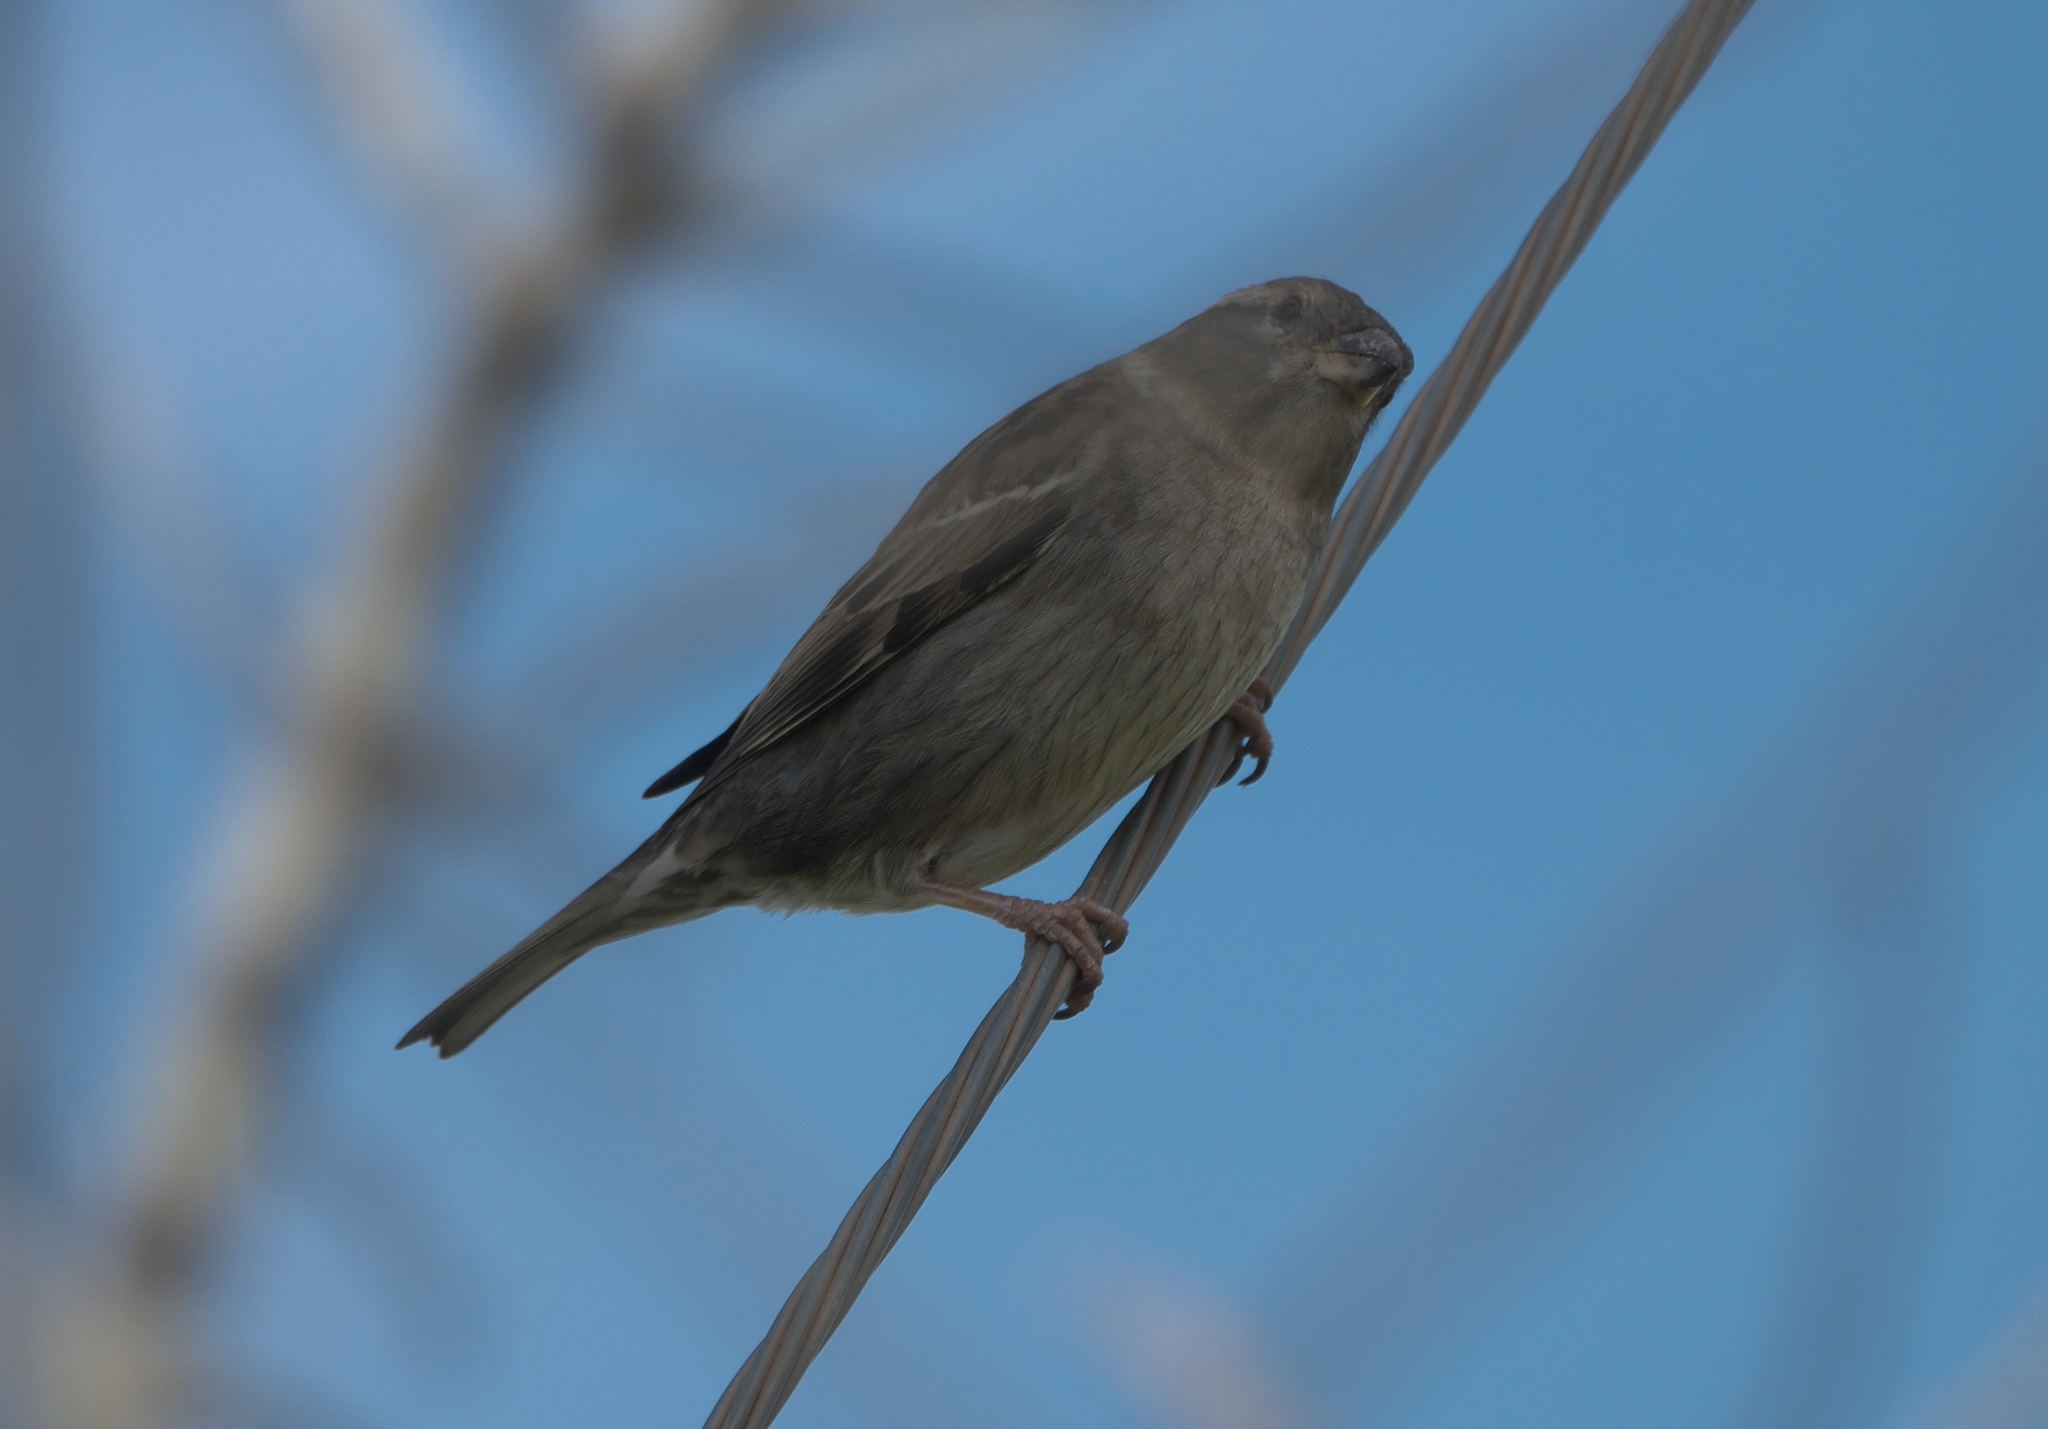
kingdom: Animalia
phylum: Chordata
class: Aves
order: Passeriformes
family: Passeridae
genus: Passer
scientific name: Passer domesticus
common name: House sparrow
